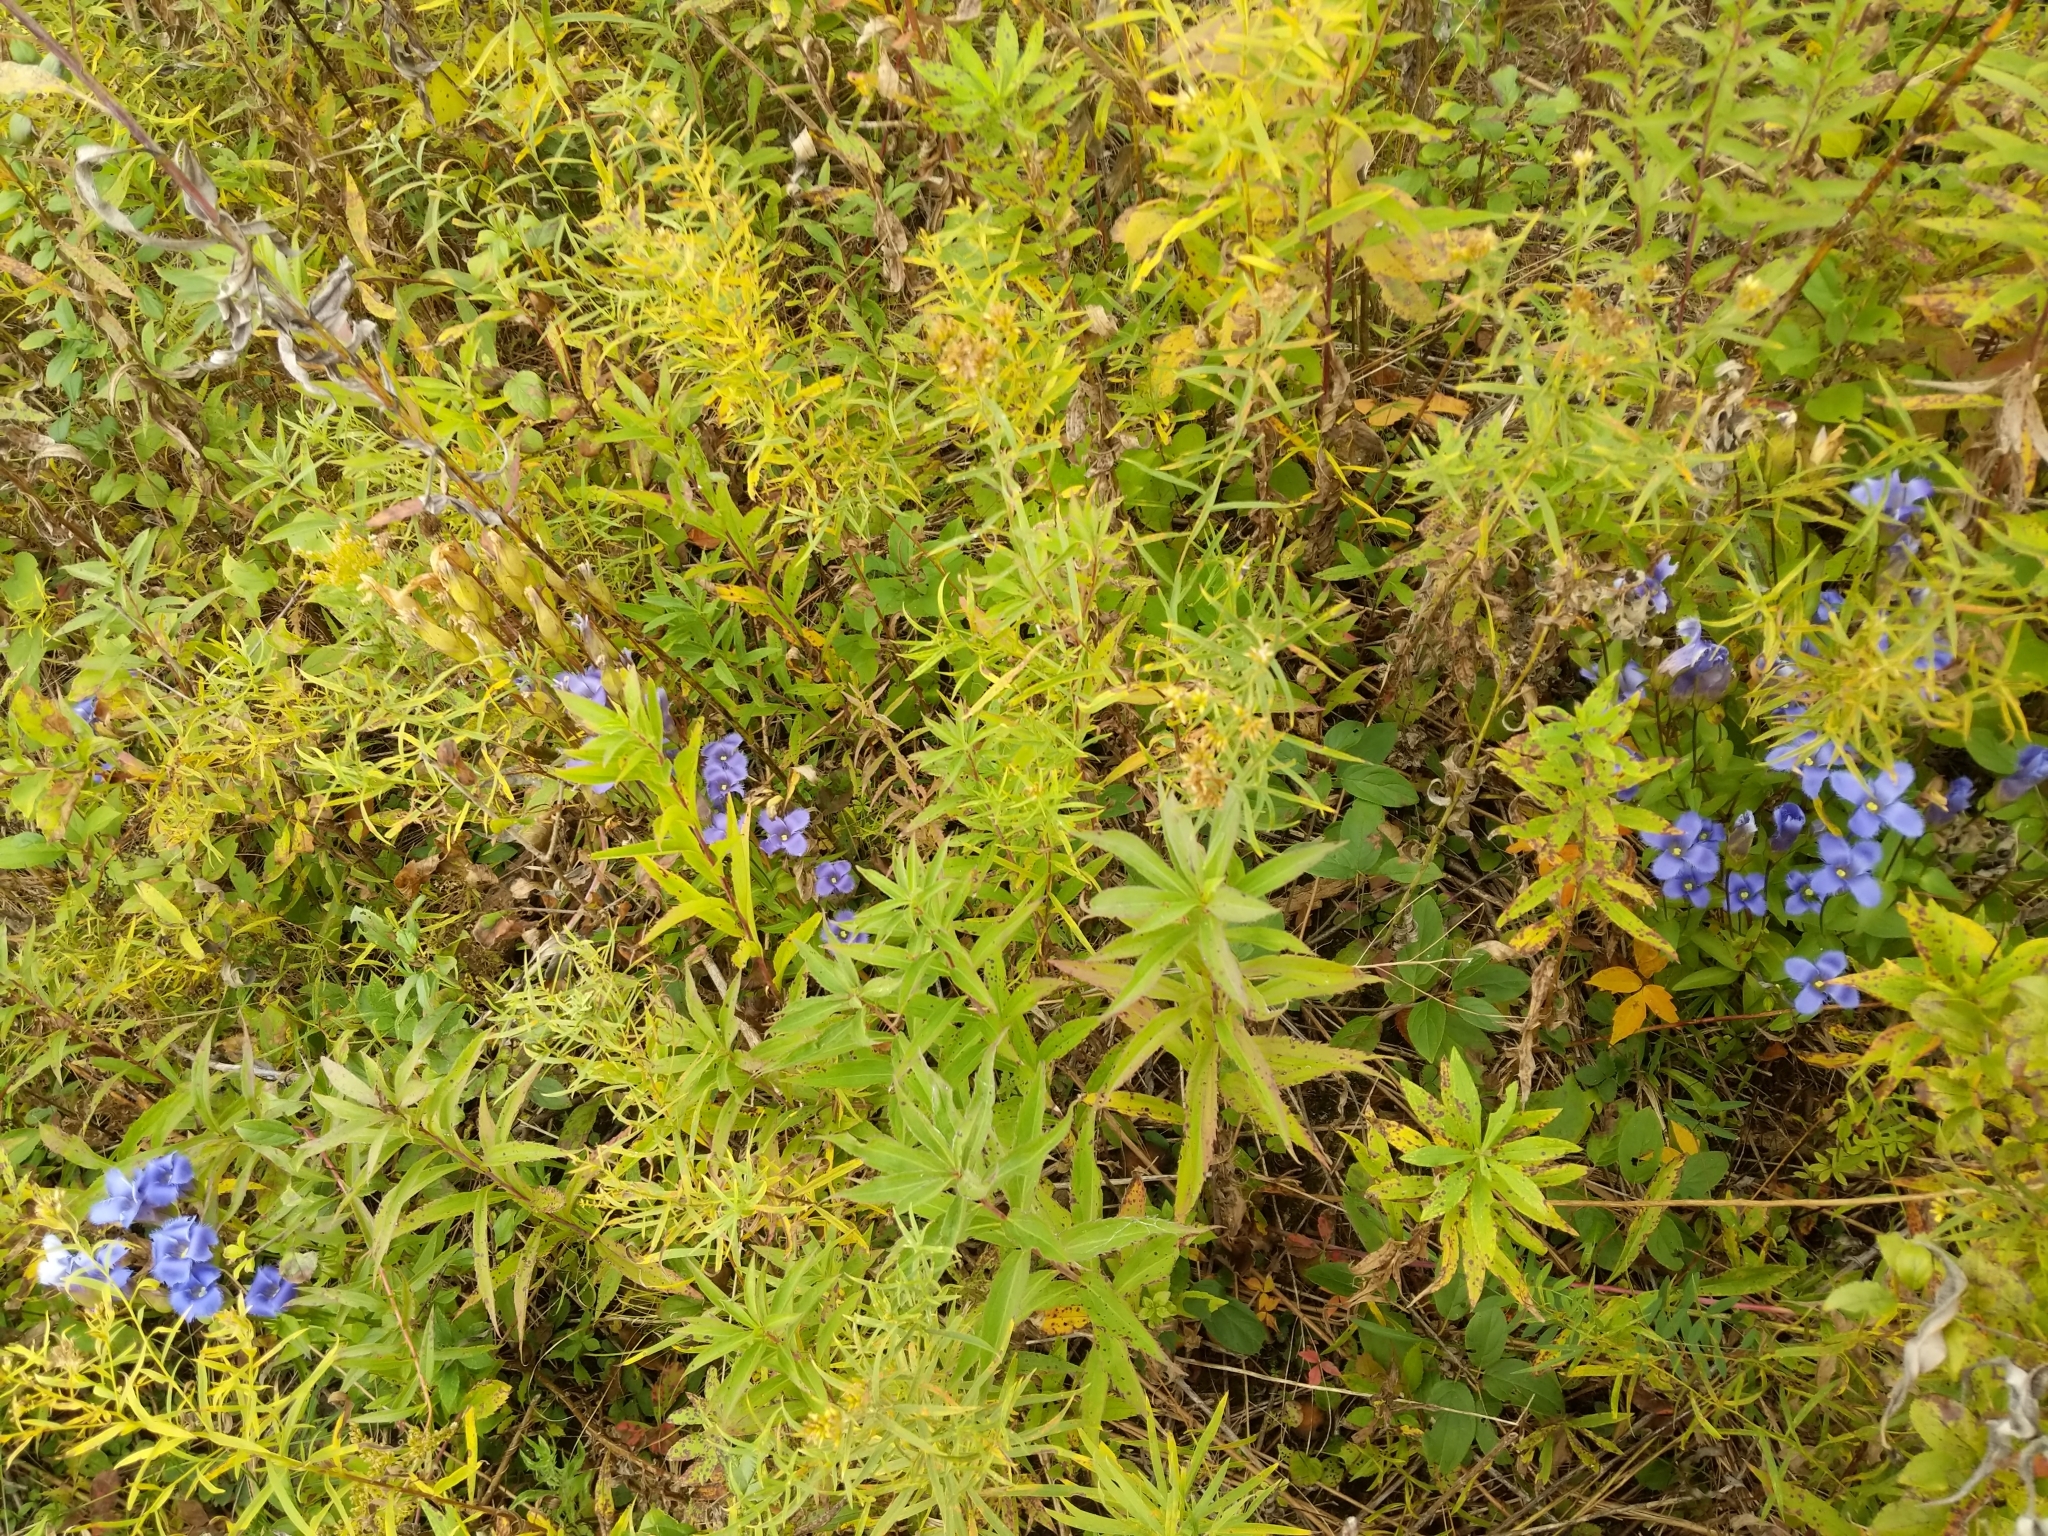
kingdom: Plantae
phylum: Tracheophyta
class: Magnoliopsida
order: Gentianales
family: Gentianaceae
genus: Gentianopsis
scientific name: Gentianopsis crinita
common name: Fringed-gentian
